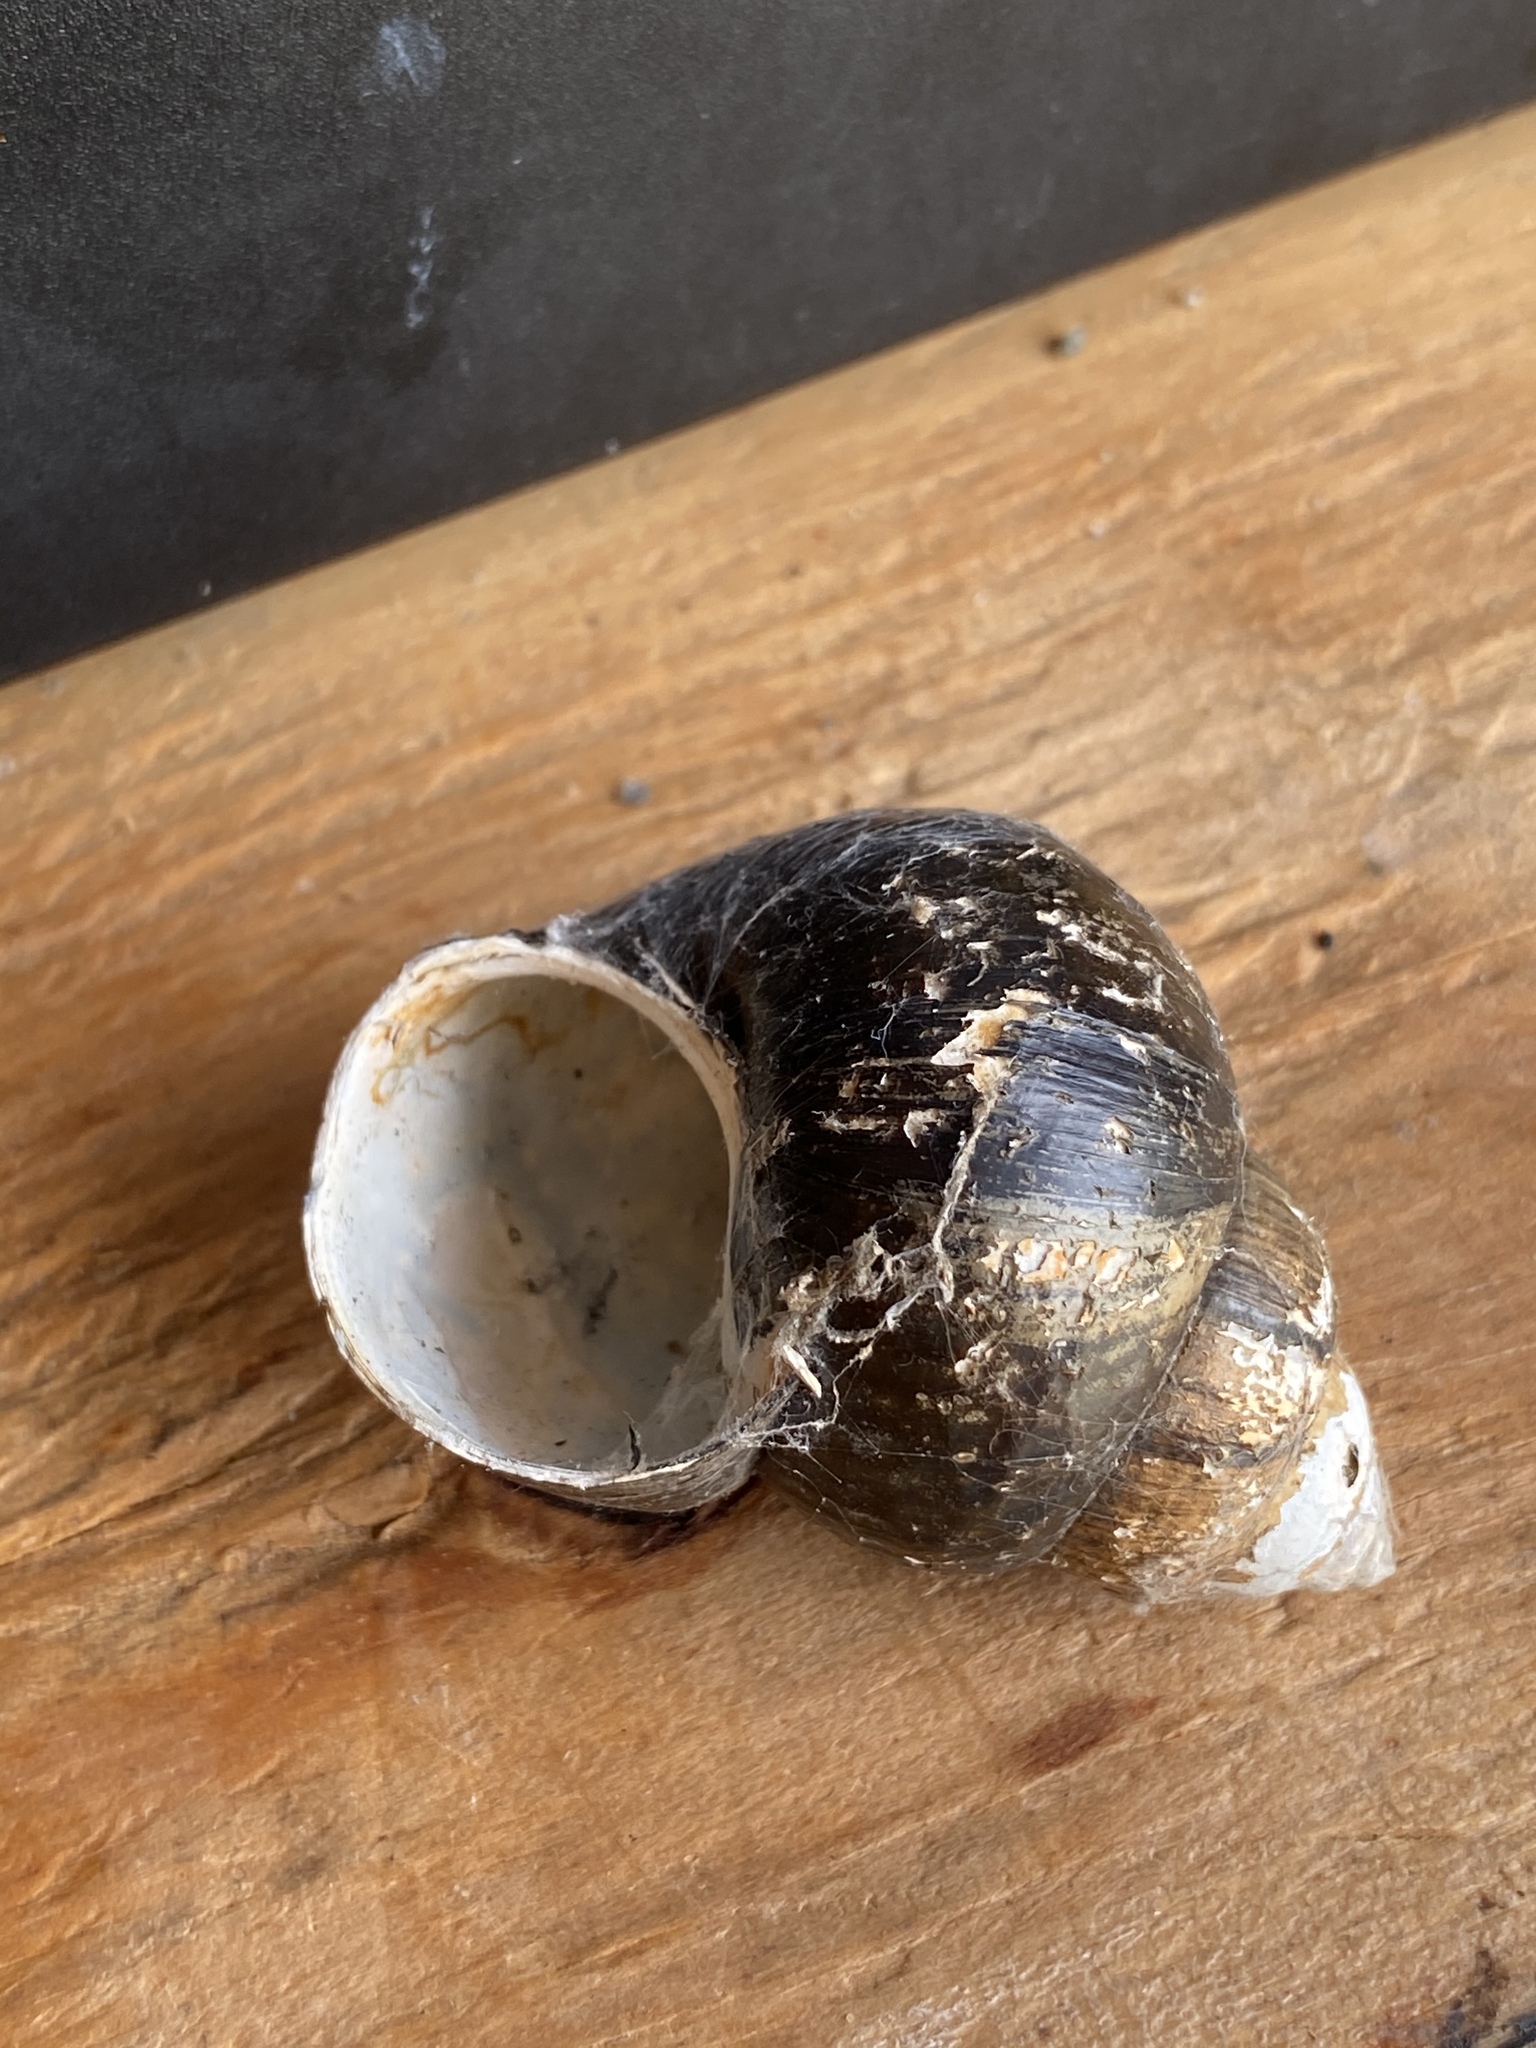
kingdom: Animalia
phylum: Mollusca
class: Gastropoda
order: Architaenioglossa
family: Viviparidae
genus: Cipangopaludina
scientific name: Cipangopaludina chinensis
